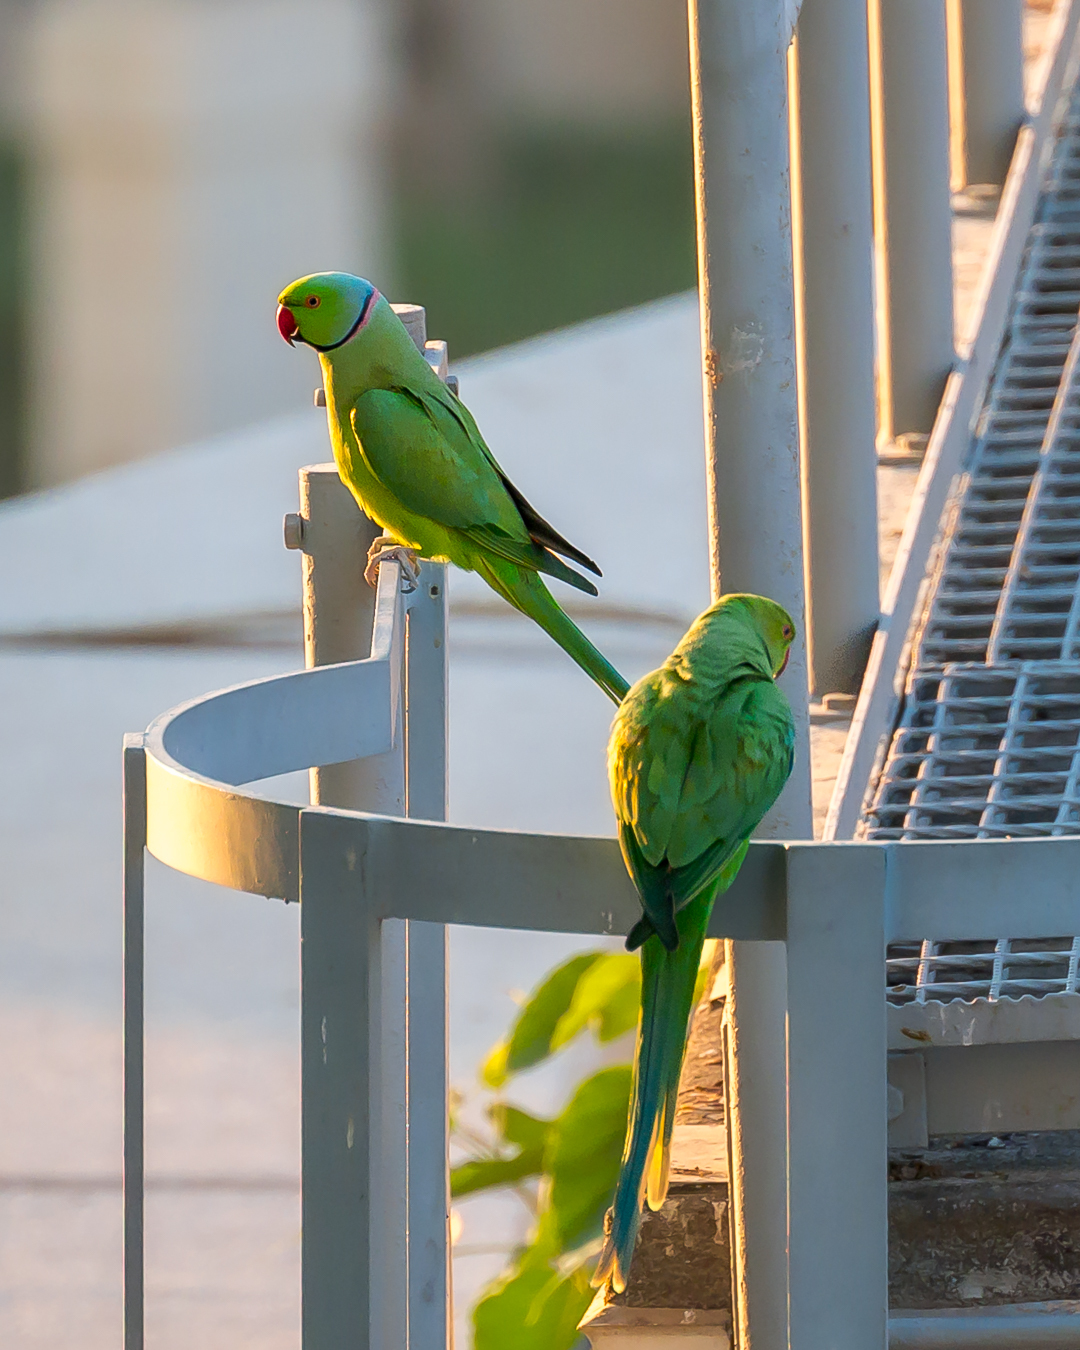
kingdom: Animalia
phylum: Chordata
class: Aves
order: Psittaciformes
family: Psittacidae
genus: Psittacula
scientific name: Psittacula krameri
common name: Rose-ringed parakeet
